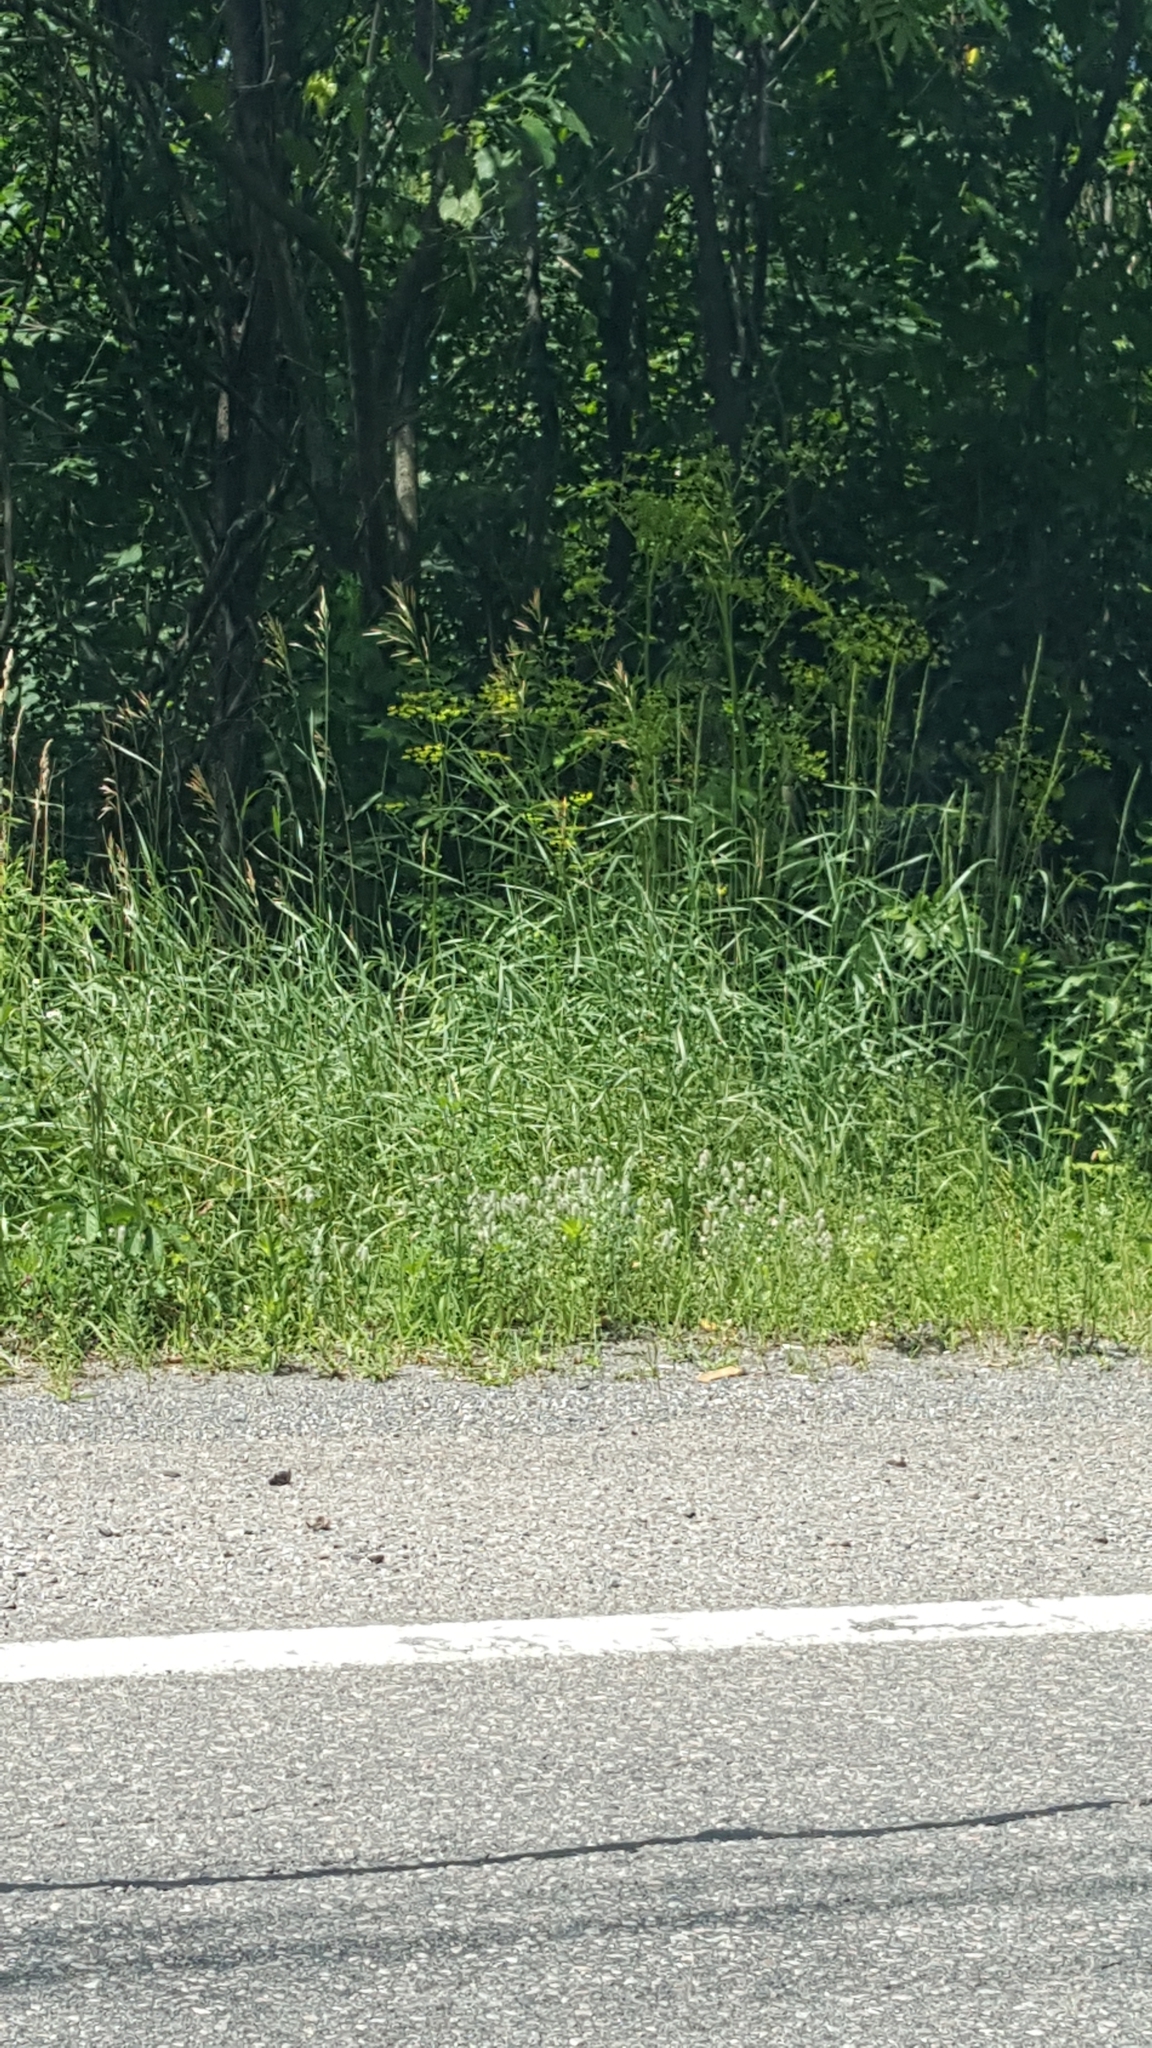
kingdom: Plantae
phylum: Tracheophyta
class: Magnoliopsida
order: Apiales
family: Apiaceae
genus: Pastinaca
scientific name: Pastinaca sativa
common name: Wild parsnip
